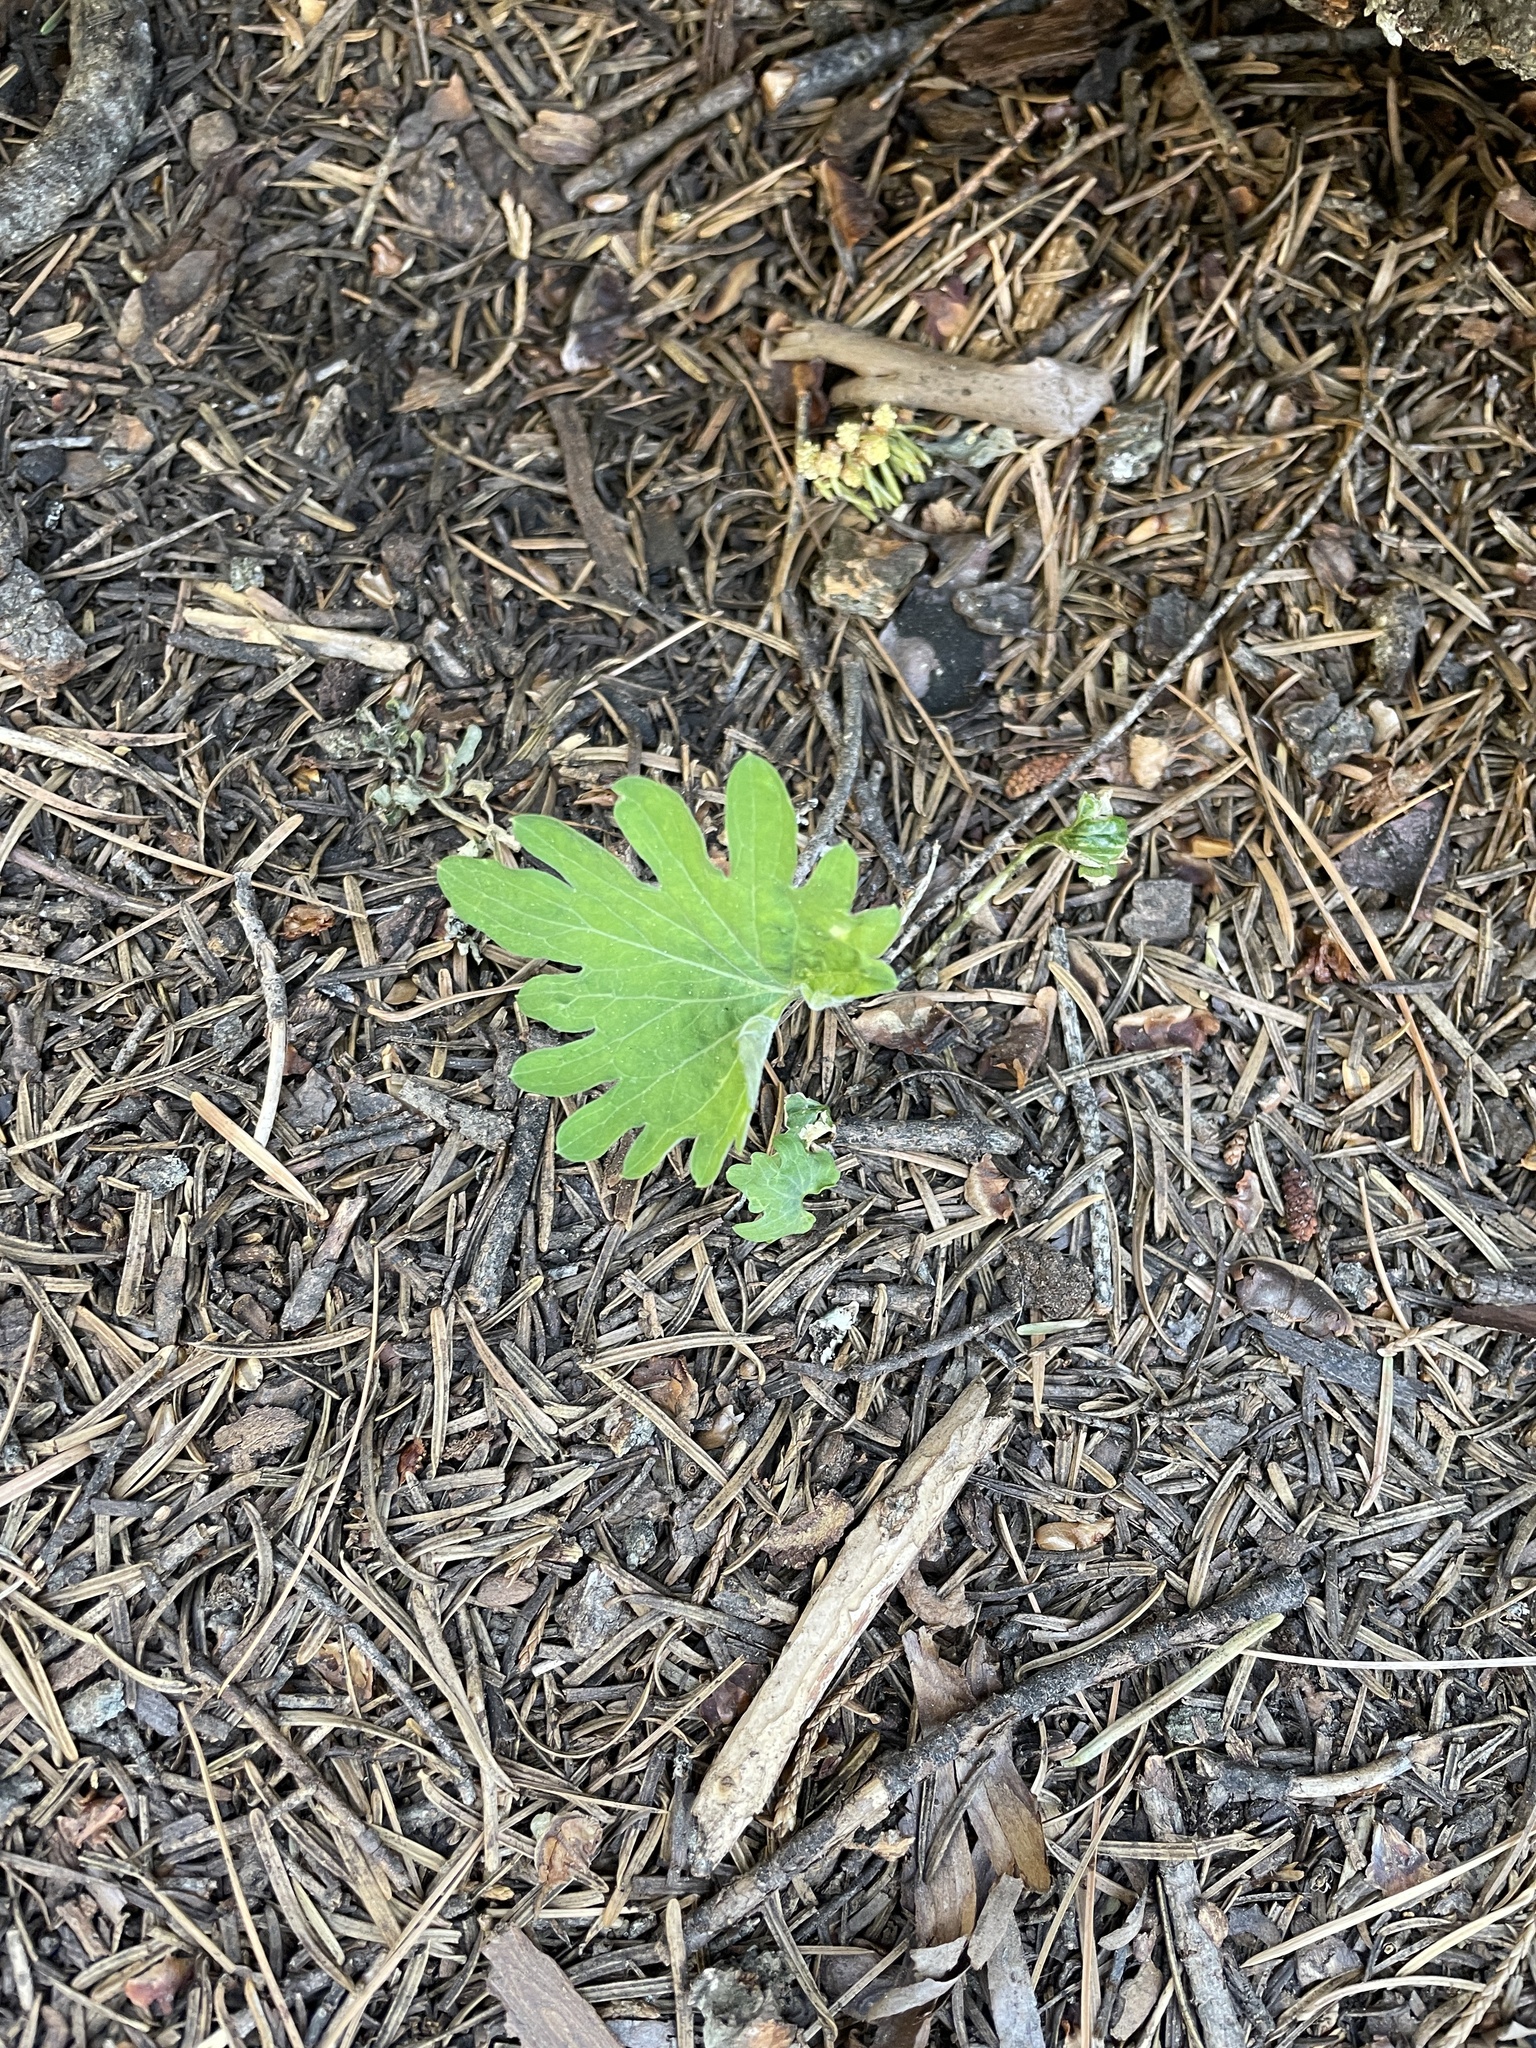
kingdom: Plantae
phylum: Tracheophyta
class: Magnoliopsida
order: Malpighiales
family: Violaceae
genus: Viola
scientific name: Viola lobata
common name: Pine violet
